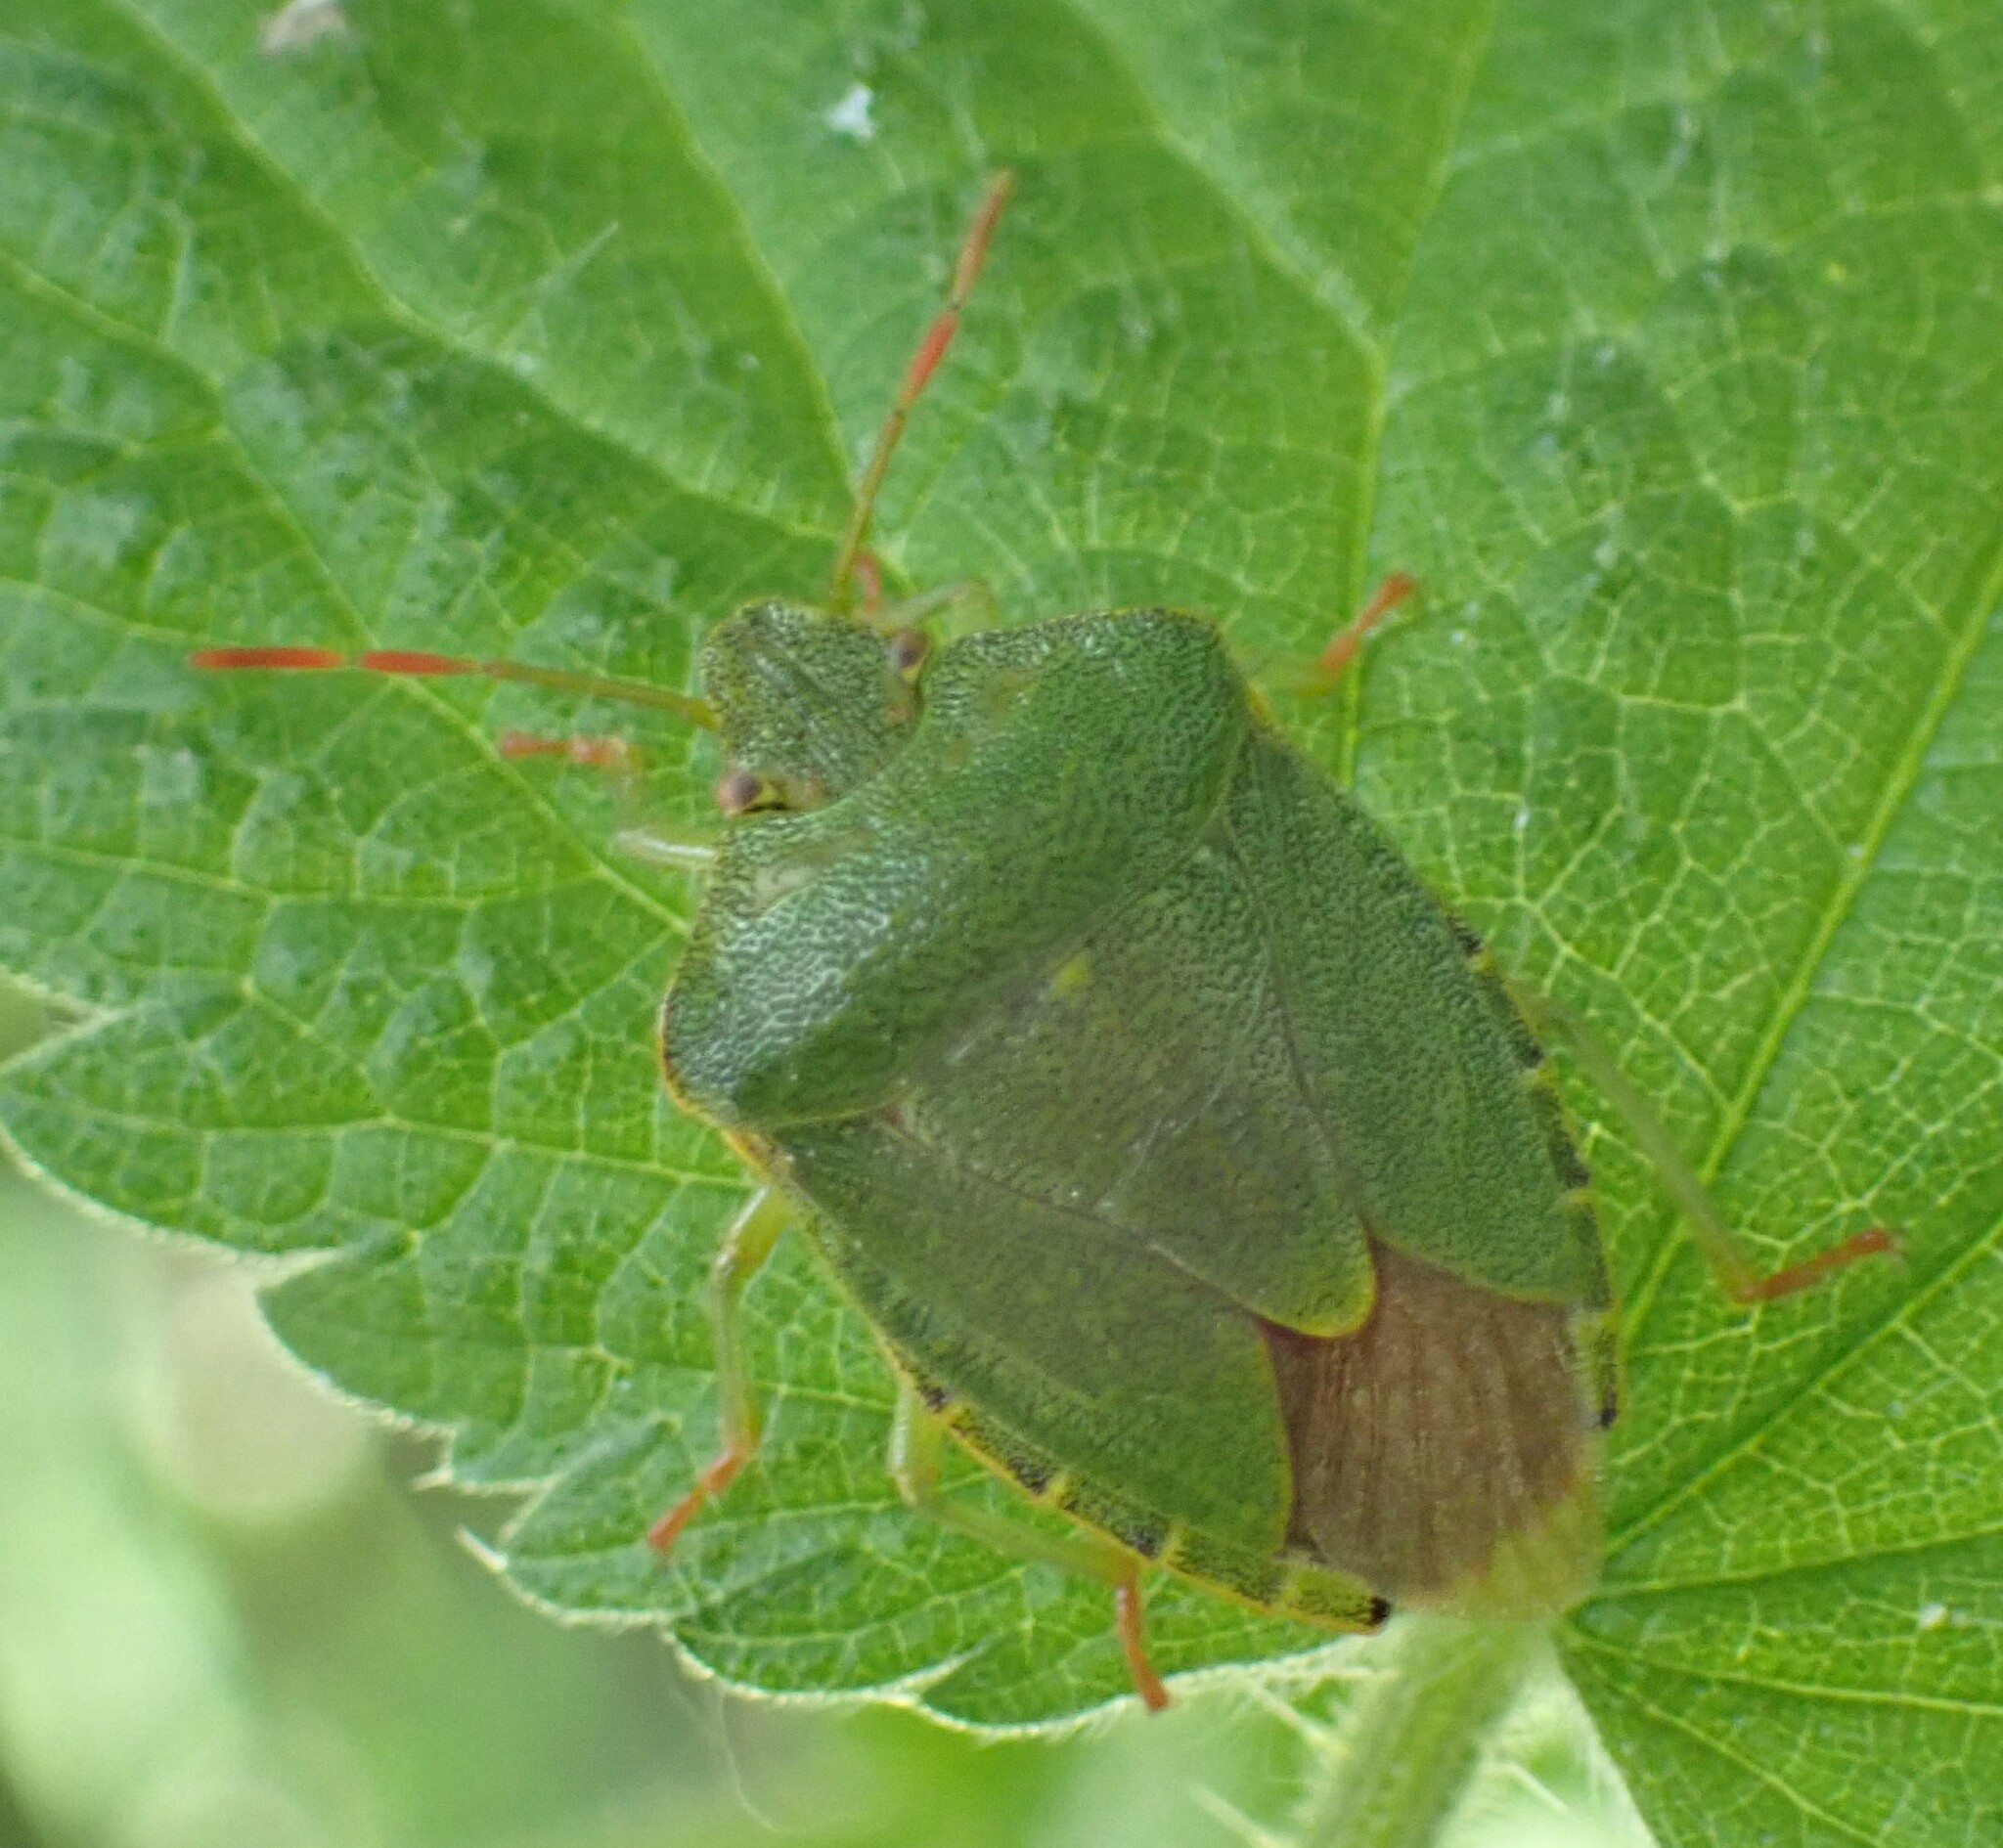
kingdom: Animalia
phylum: Arthropoda
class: Insecta
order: Hemiptera
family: Pentatomidae
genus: Palomena
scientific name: Palomena prasina
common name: Green shieldbug
